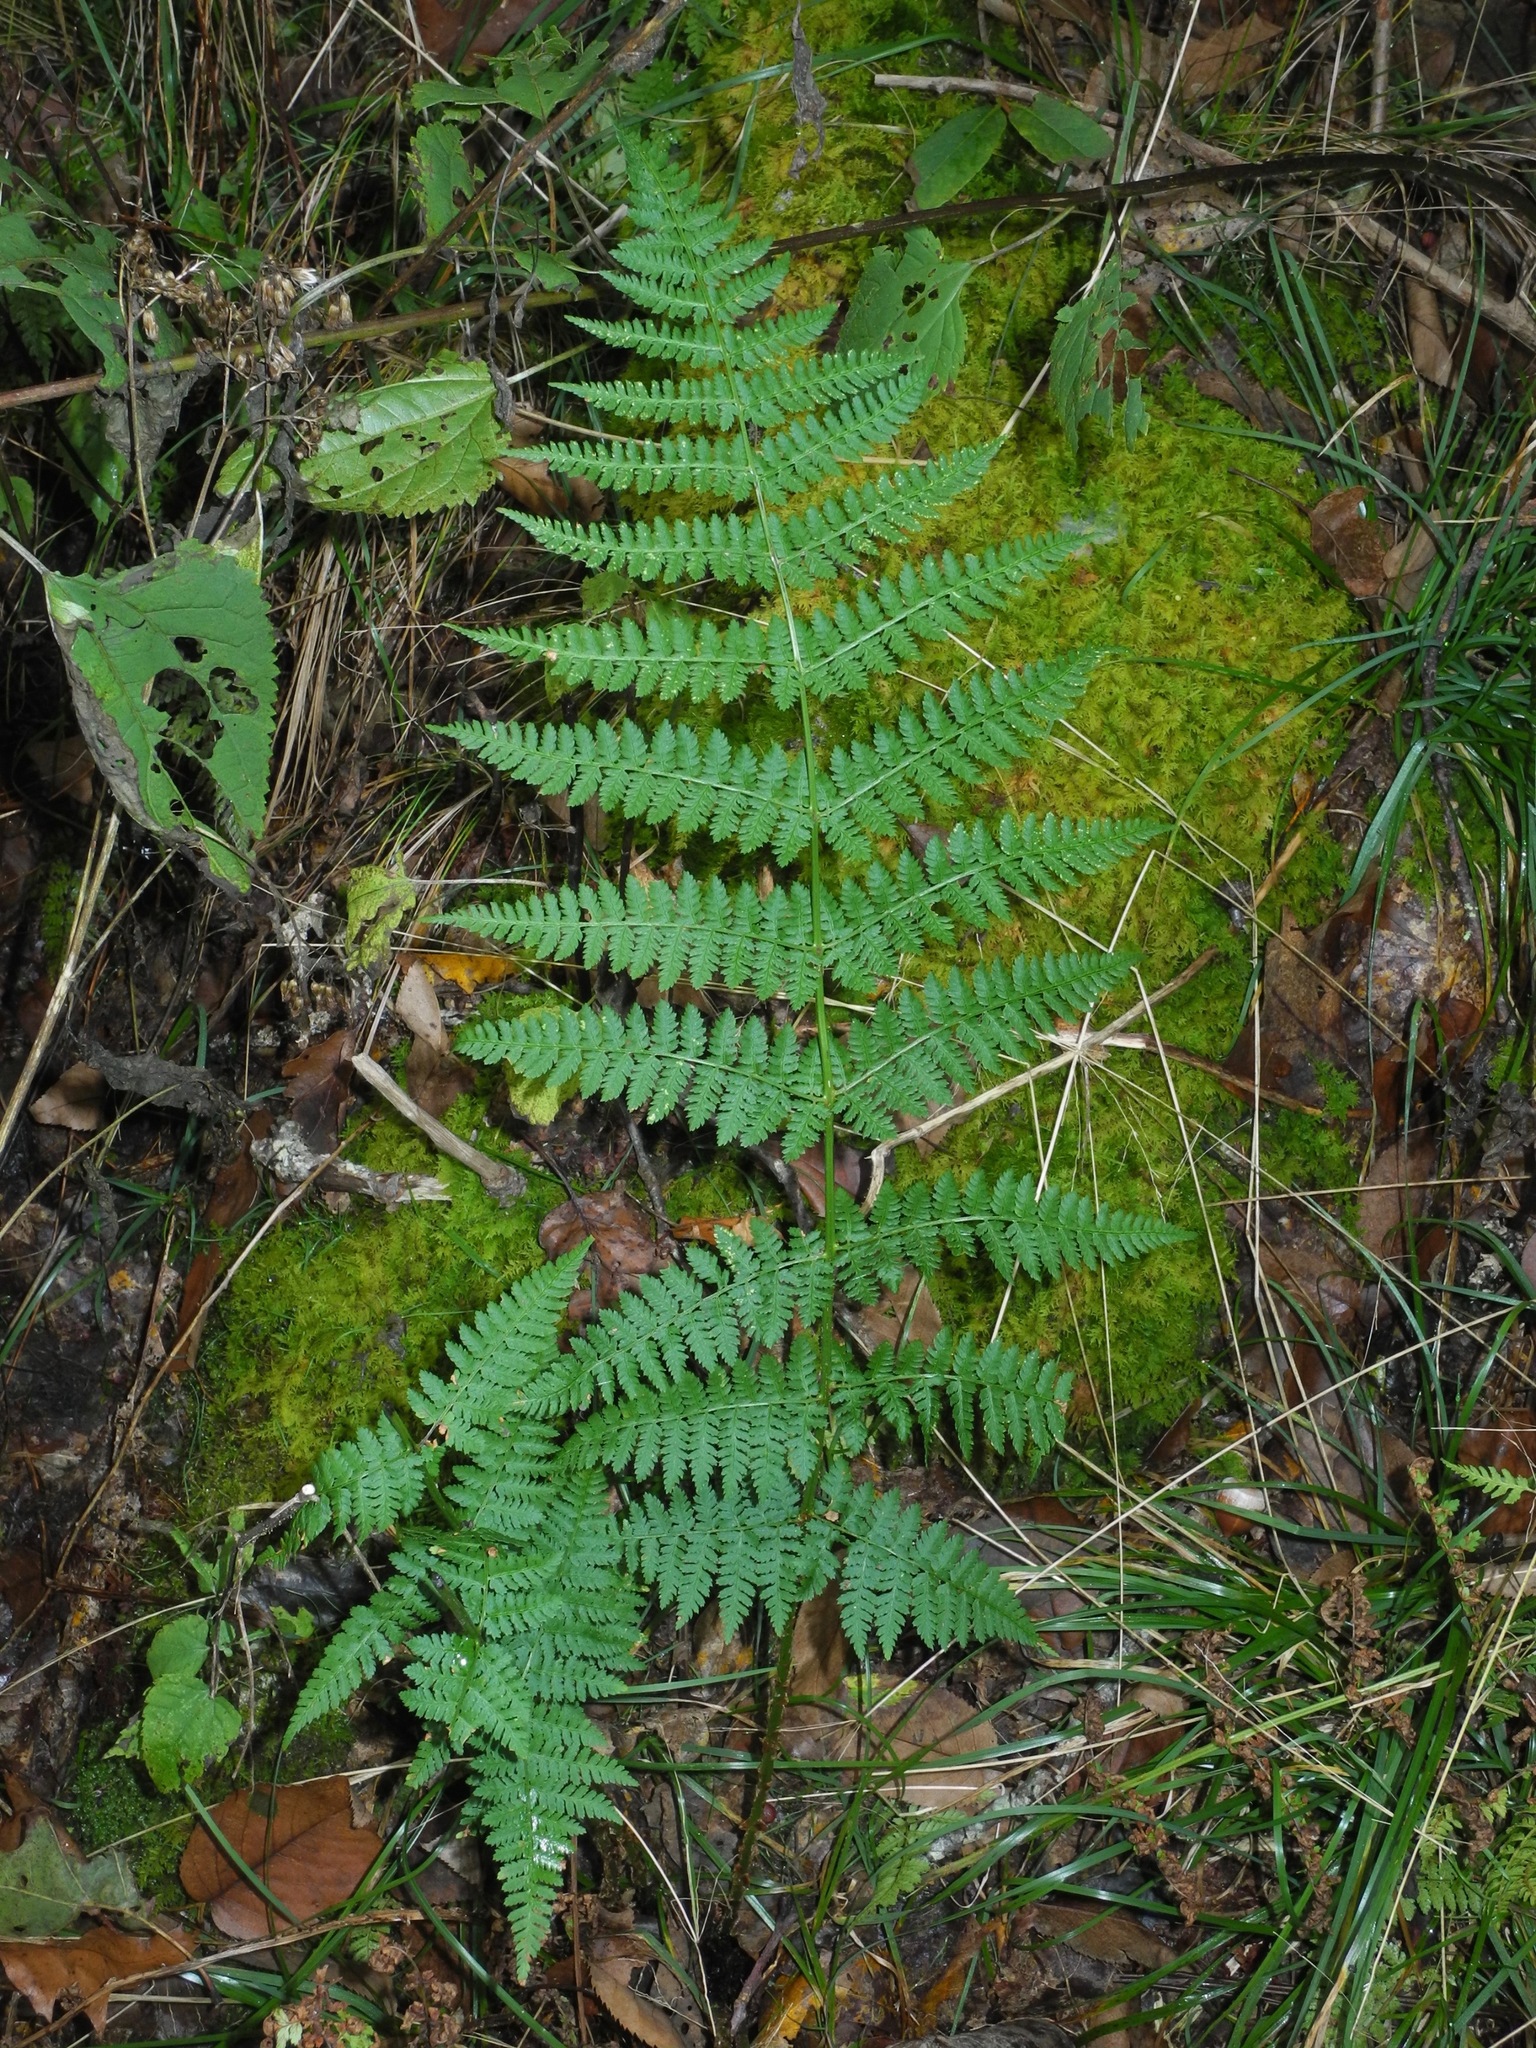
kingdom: Plantae
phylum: Tracheophyta
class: Polypodiopsida
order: Polypodiales
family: Dryopteridaceae
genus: Dryopteris
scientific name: Dryopteris intermedia
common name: Evergreen wood fern
